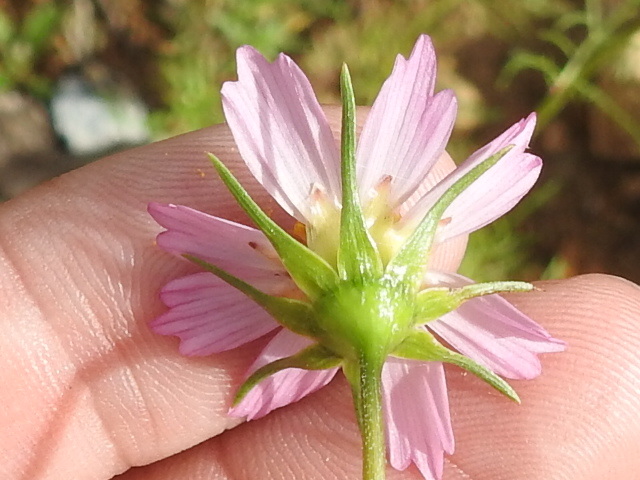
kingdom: Plantae
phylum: Tracheophyta
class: Magnoliopsida
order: Asterales
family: Asteraceae
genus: Cosmos
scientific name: Cosmos parviflorus
